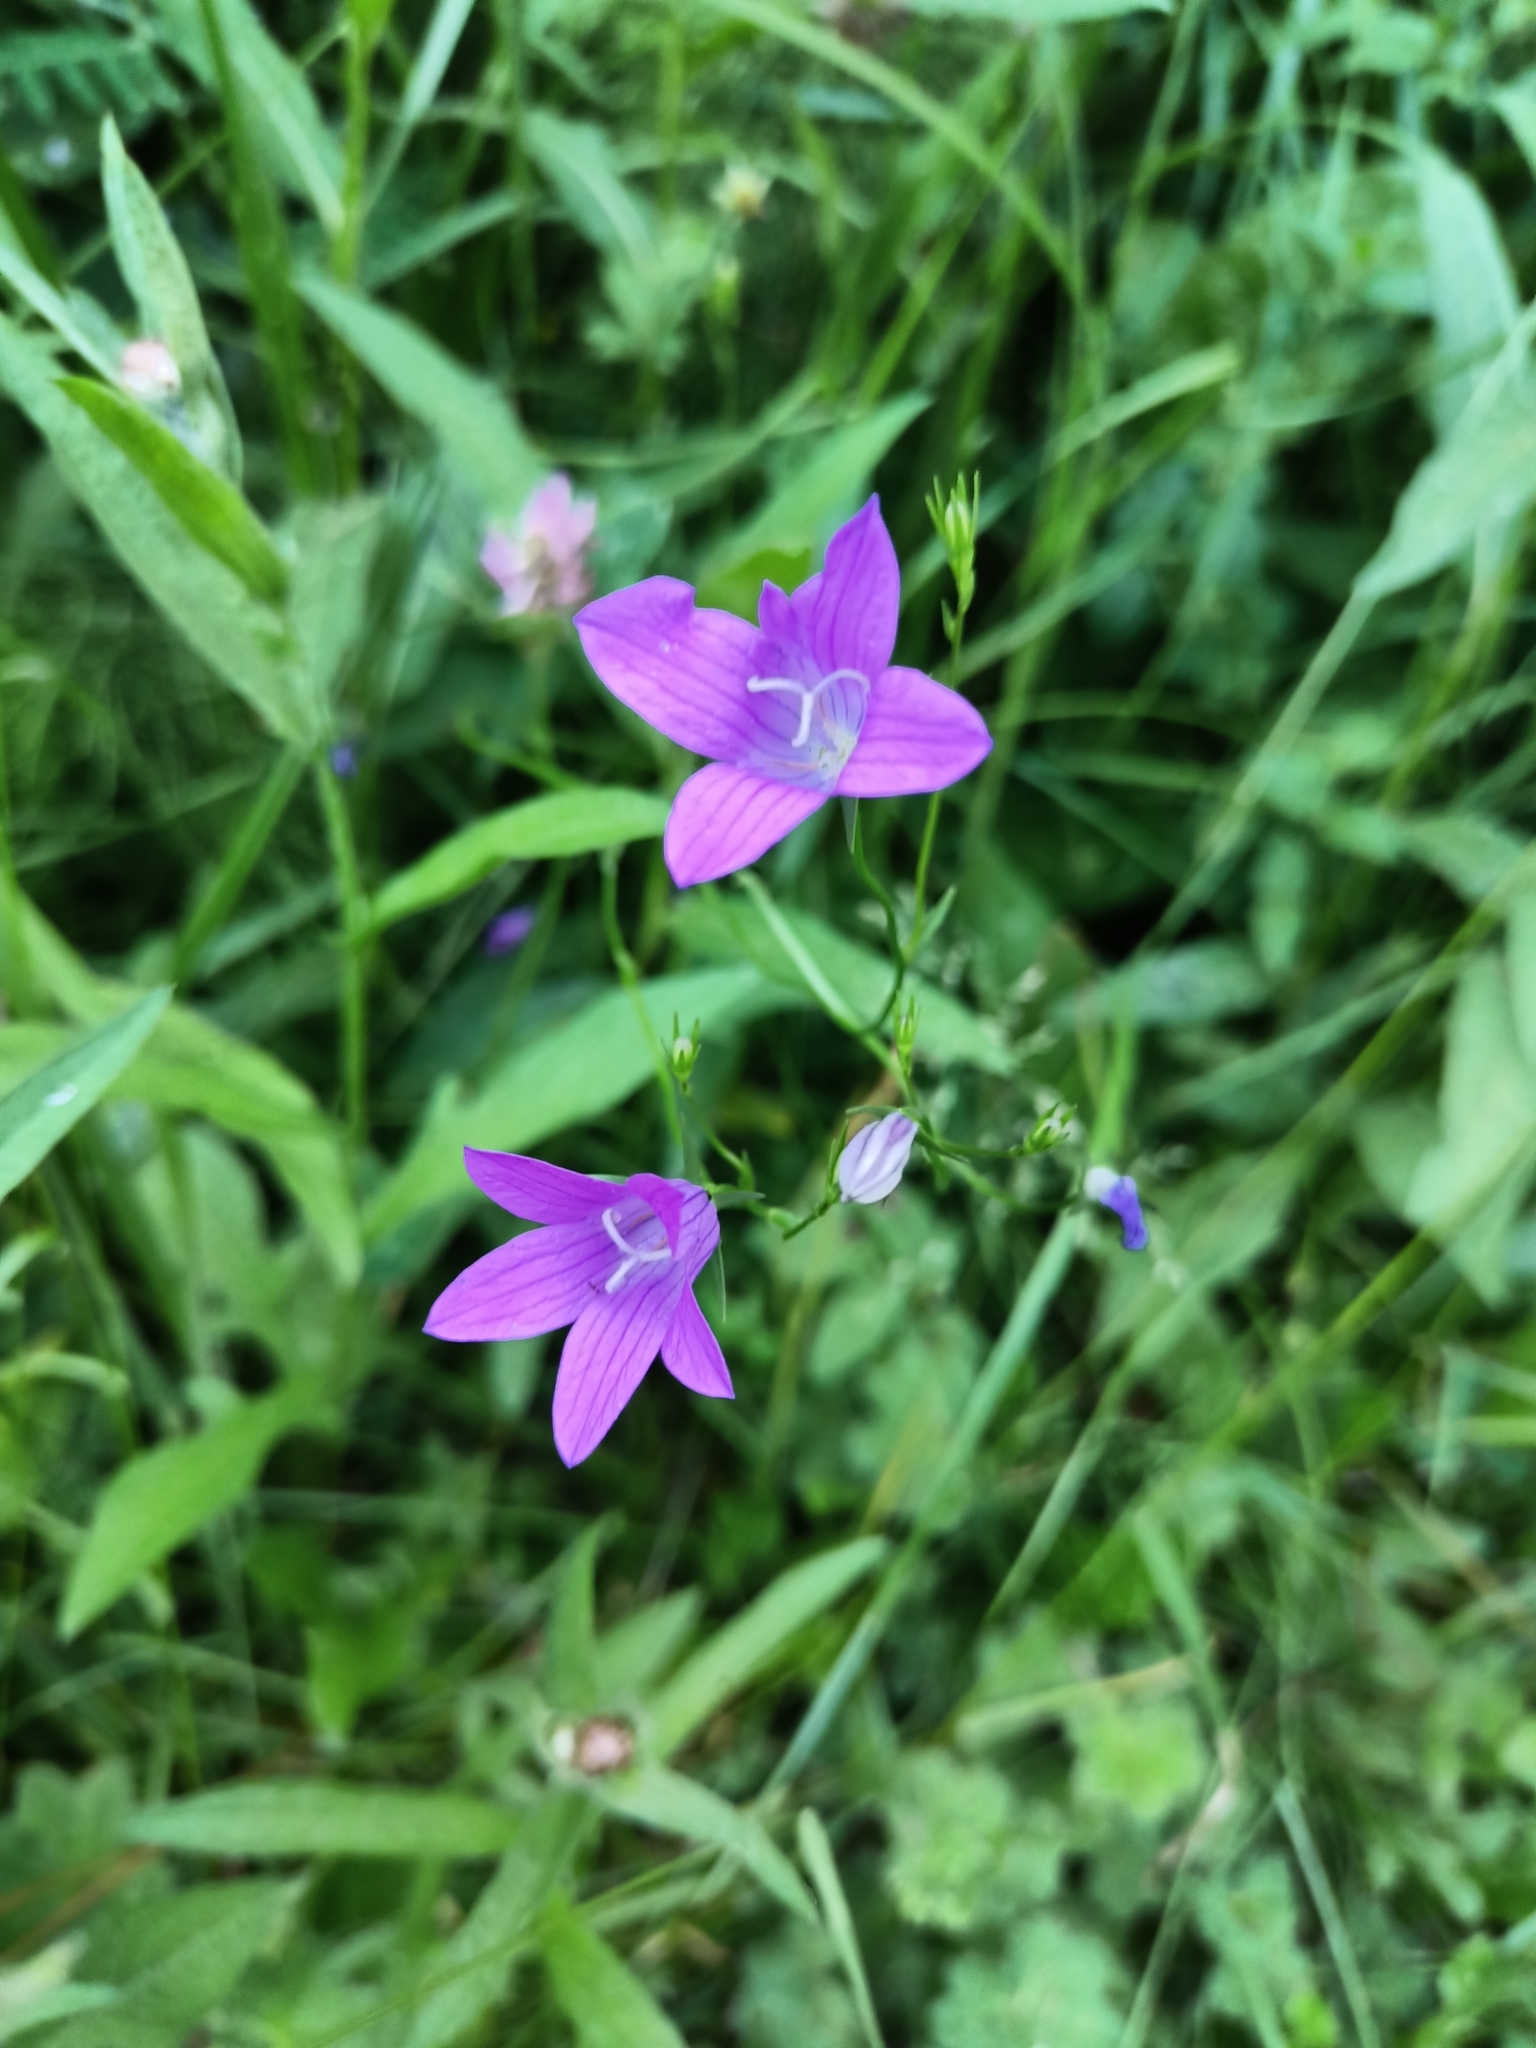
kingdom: Plantae
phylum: Tracheophyta
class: Magnoliopsida
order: Asterales
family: Campanulaceae
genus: Campanula
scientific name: Campanula patula
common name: Spreading bellflower
